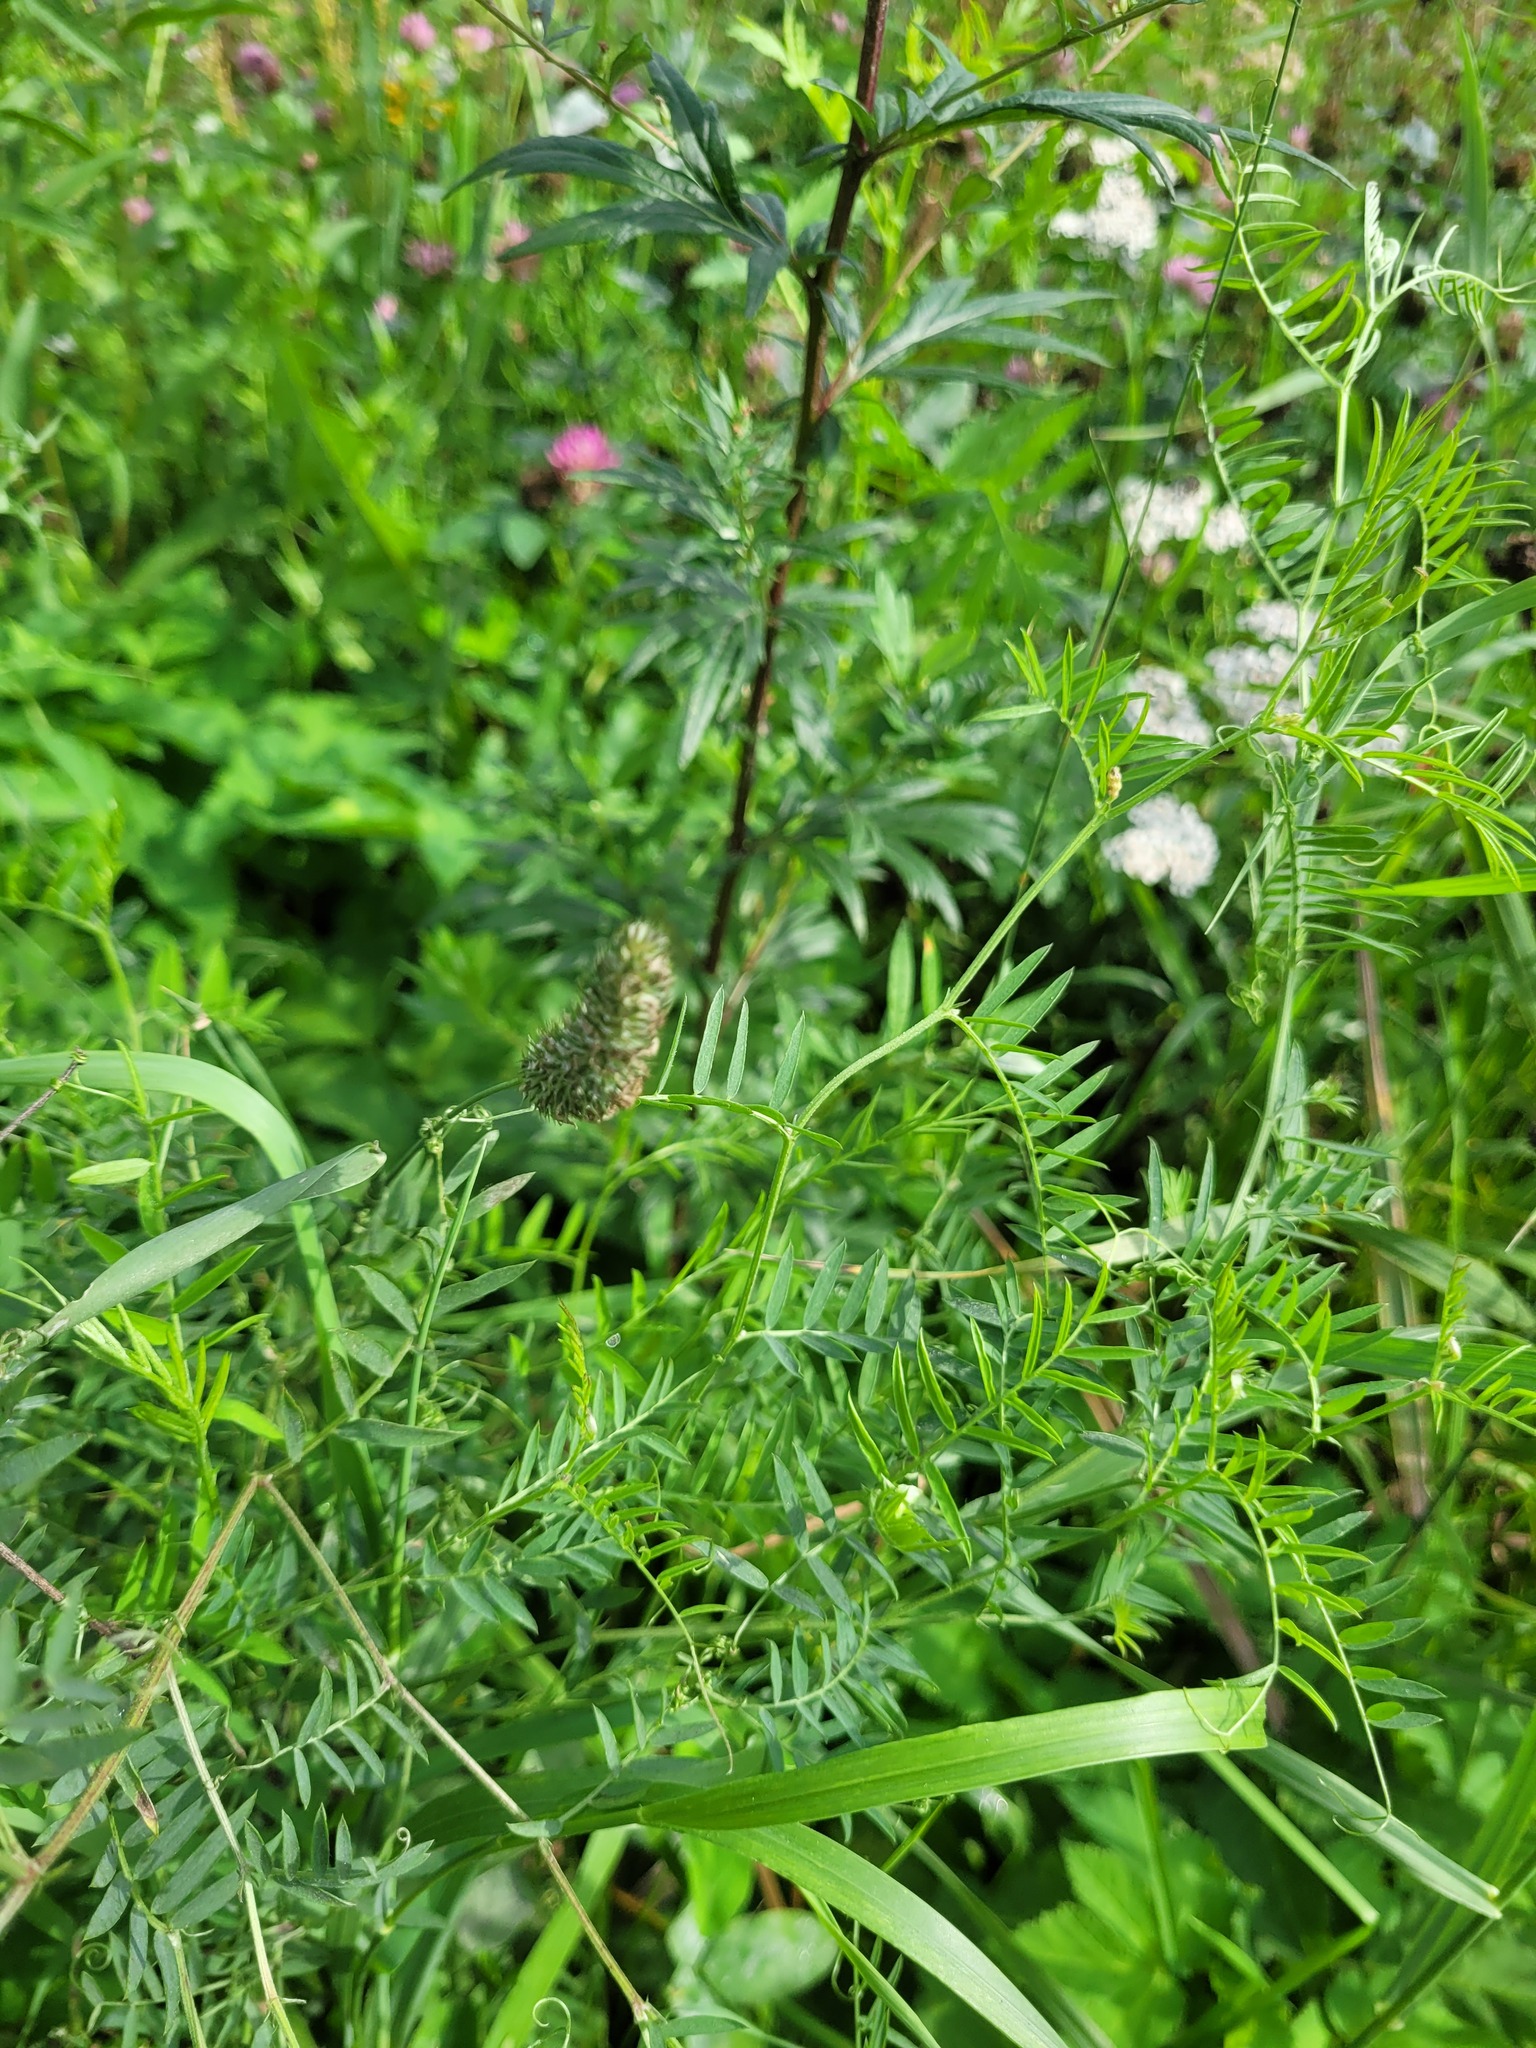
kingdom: Plantae
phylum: Tracheophyta
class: Liliopsida
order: Poales
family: Poaceae
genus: Phleum
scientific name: Phleum pratense
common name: Timothy grass
